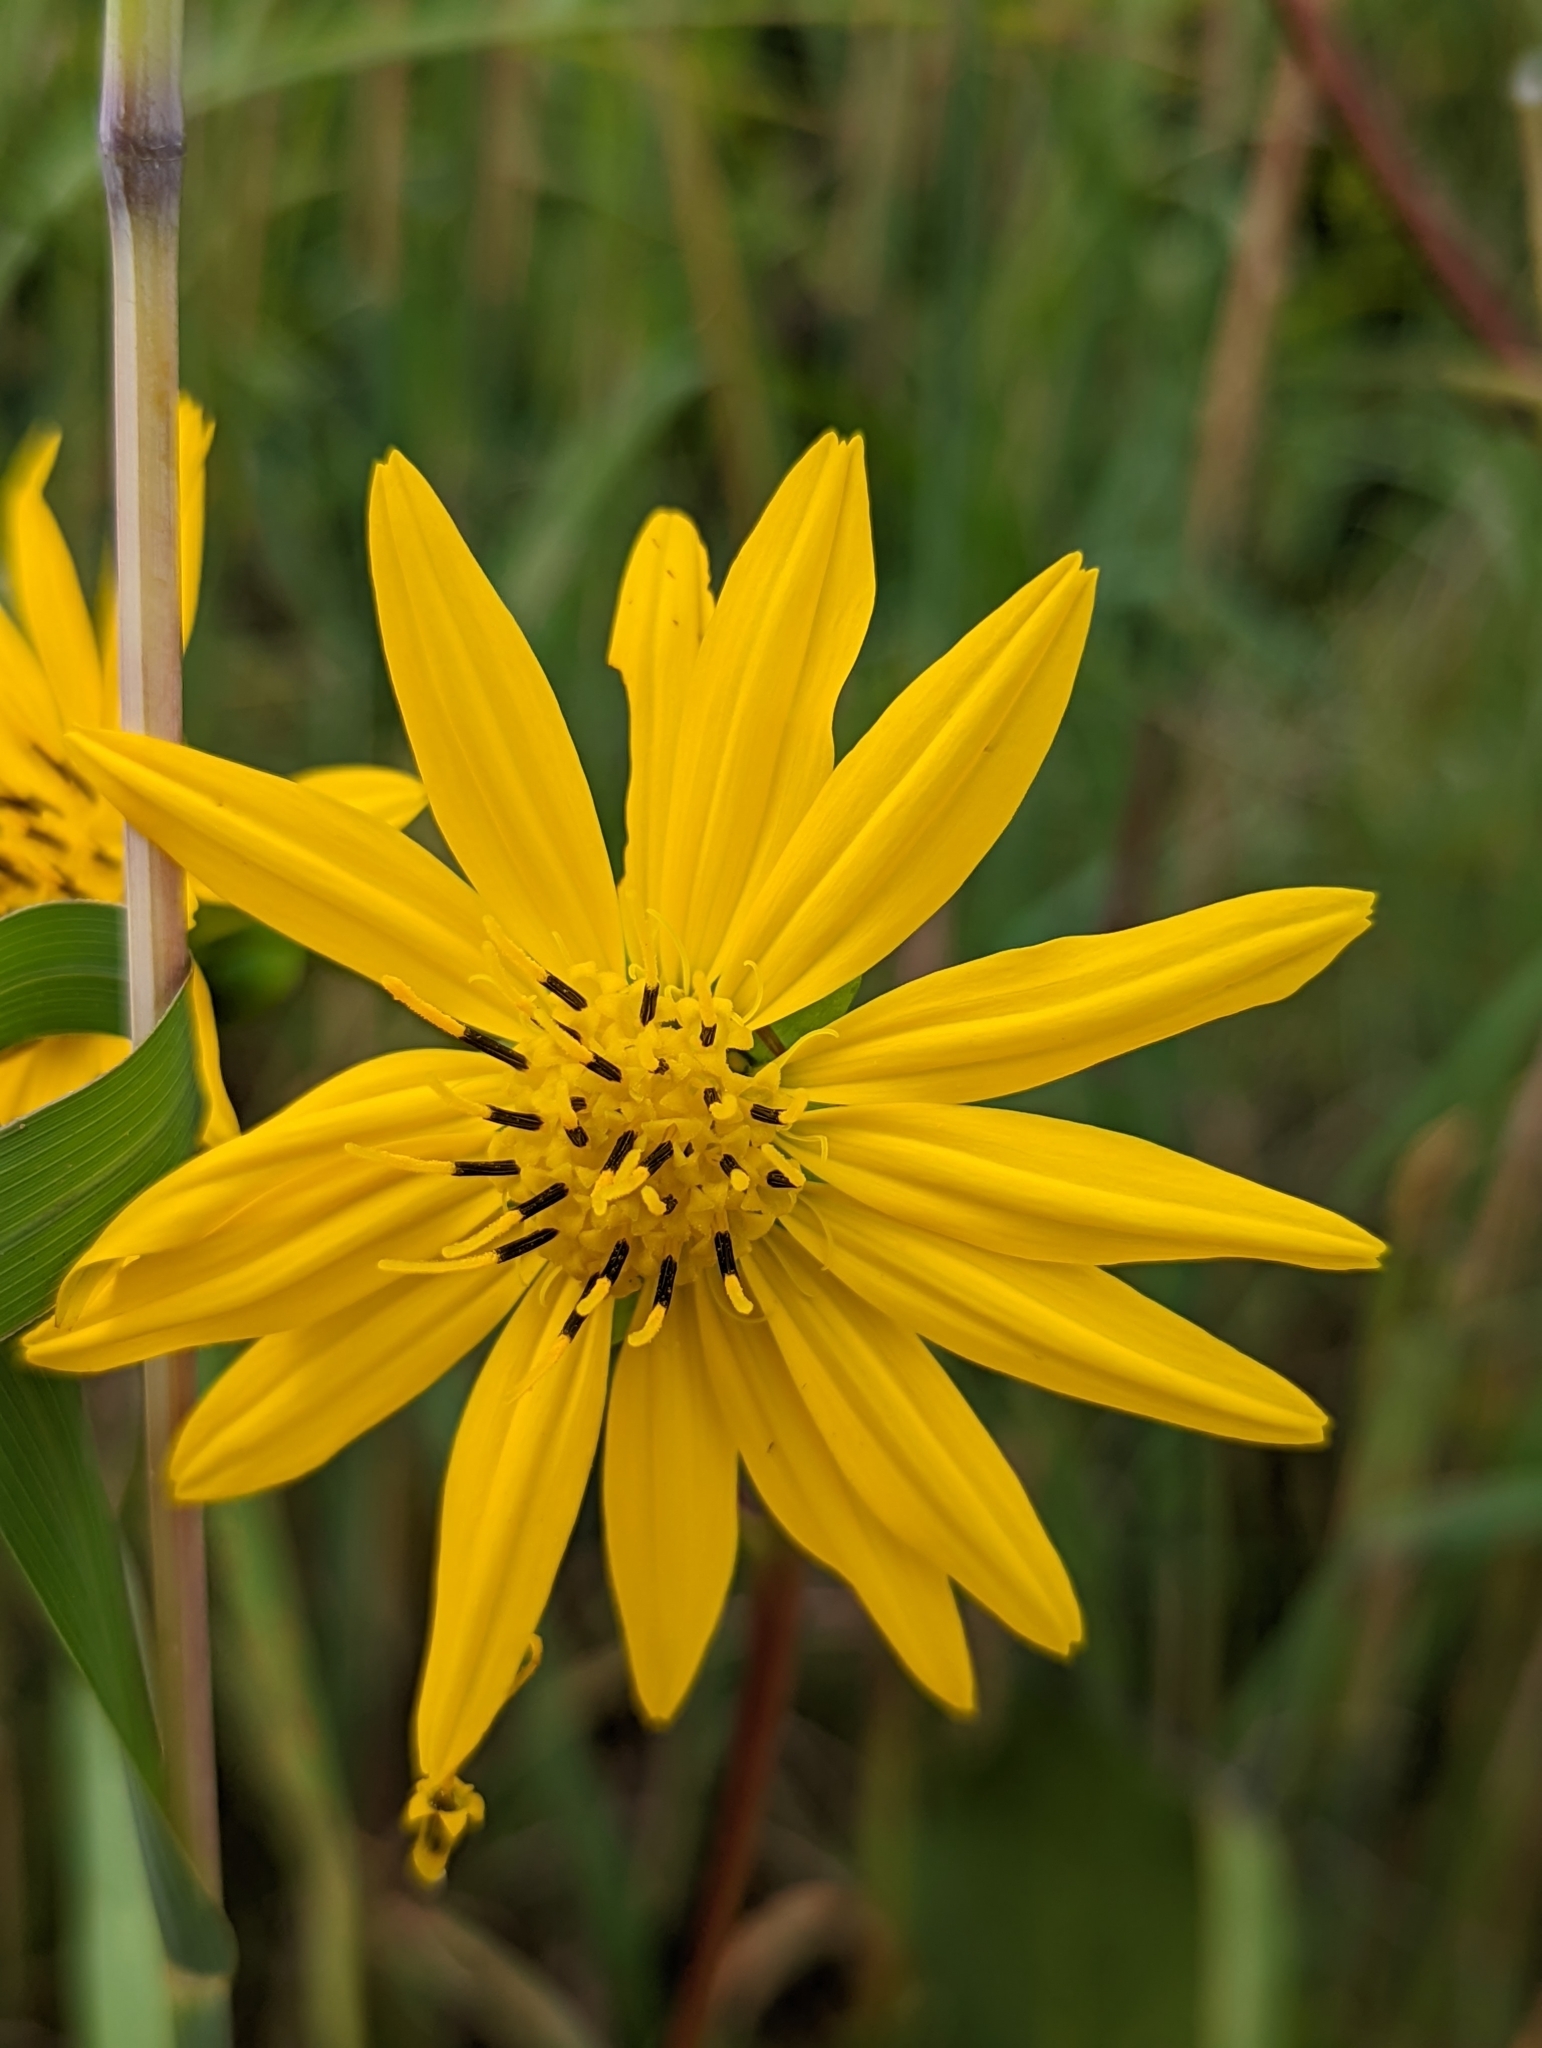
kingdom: Plantae
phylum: Tracheophyta
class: Magnoliopsida
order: Asterales
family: Asteraceae
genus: Silphium
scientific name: Silphium terebinthinaceum
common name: Basal-leaf rosinweed
